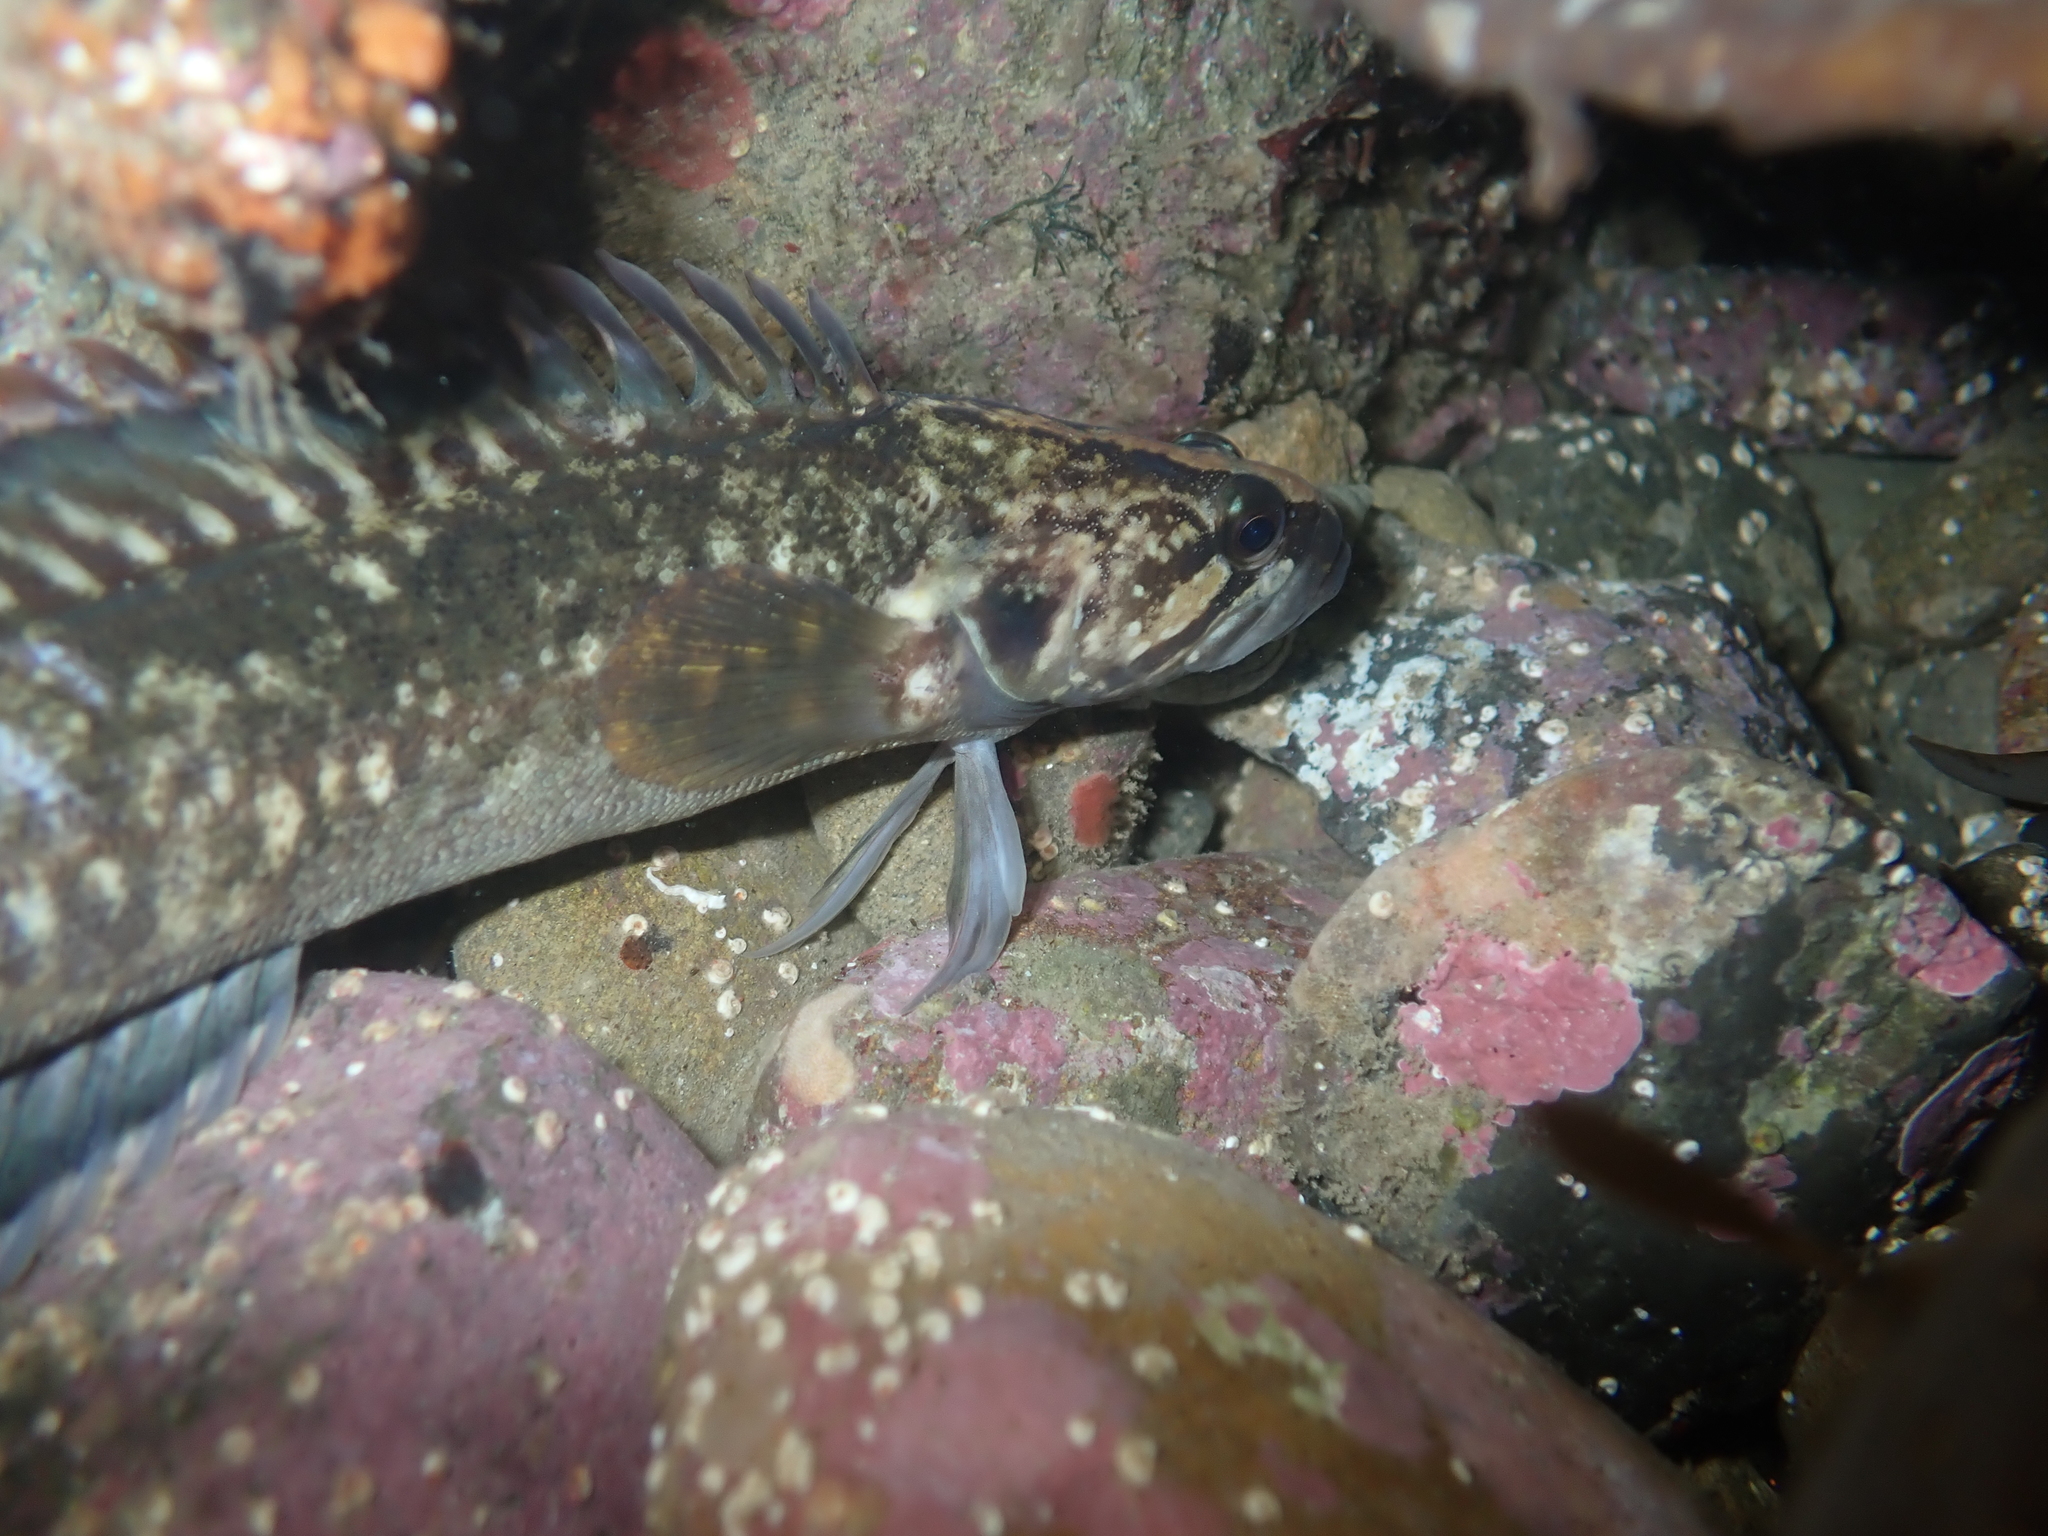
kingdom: Animalia
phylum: Chordata
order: Perciformes
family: Plesiopidae
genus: Acanthoclinus
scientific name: Acanthoclinus fuscus
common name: Olive rockfish
